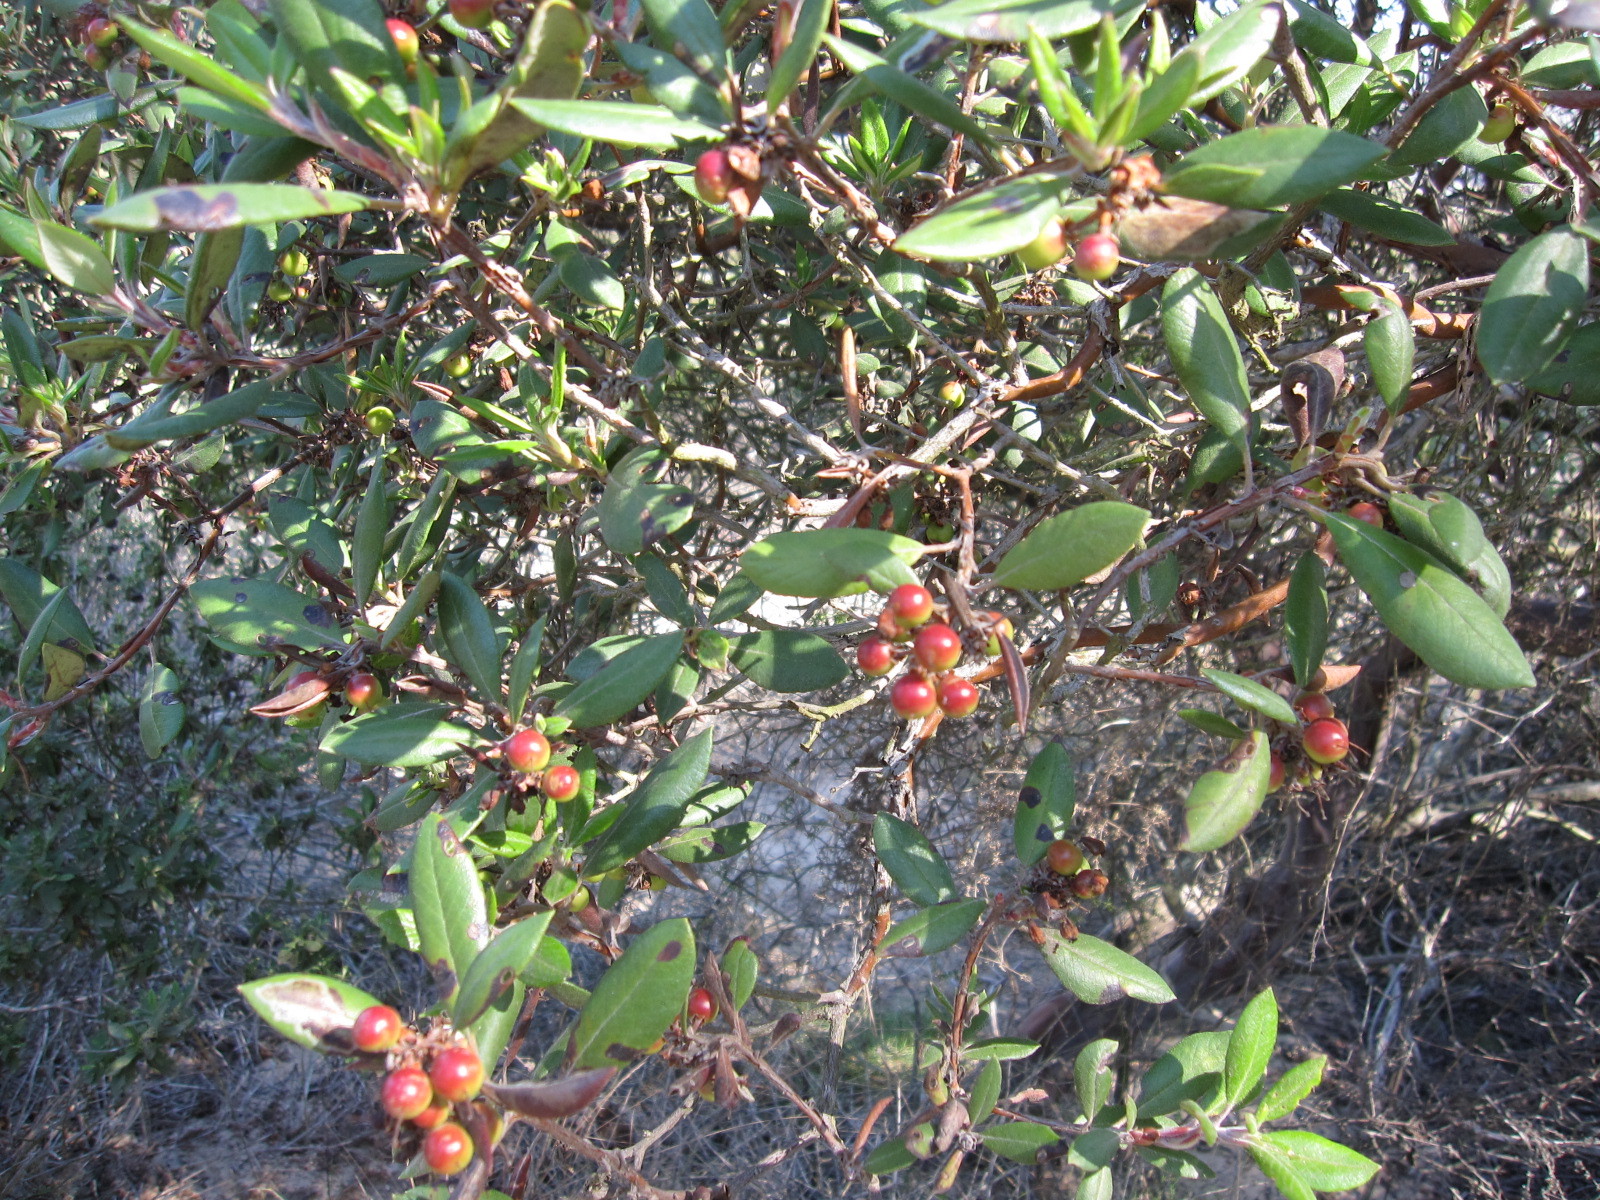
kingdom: Plantae
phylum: Tracheophyta
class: Magnoliopsida
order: Ericales
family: Ericaceae
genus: Arctostaphylos
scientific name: Arctostaphylos bicolor
